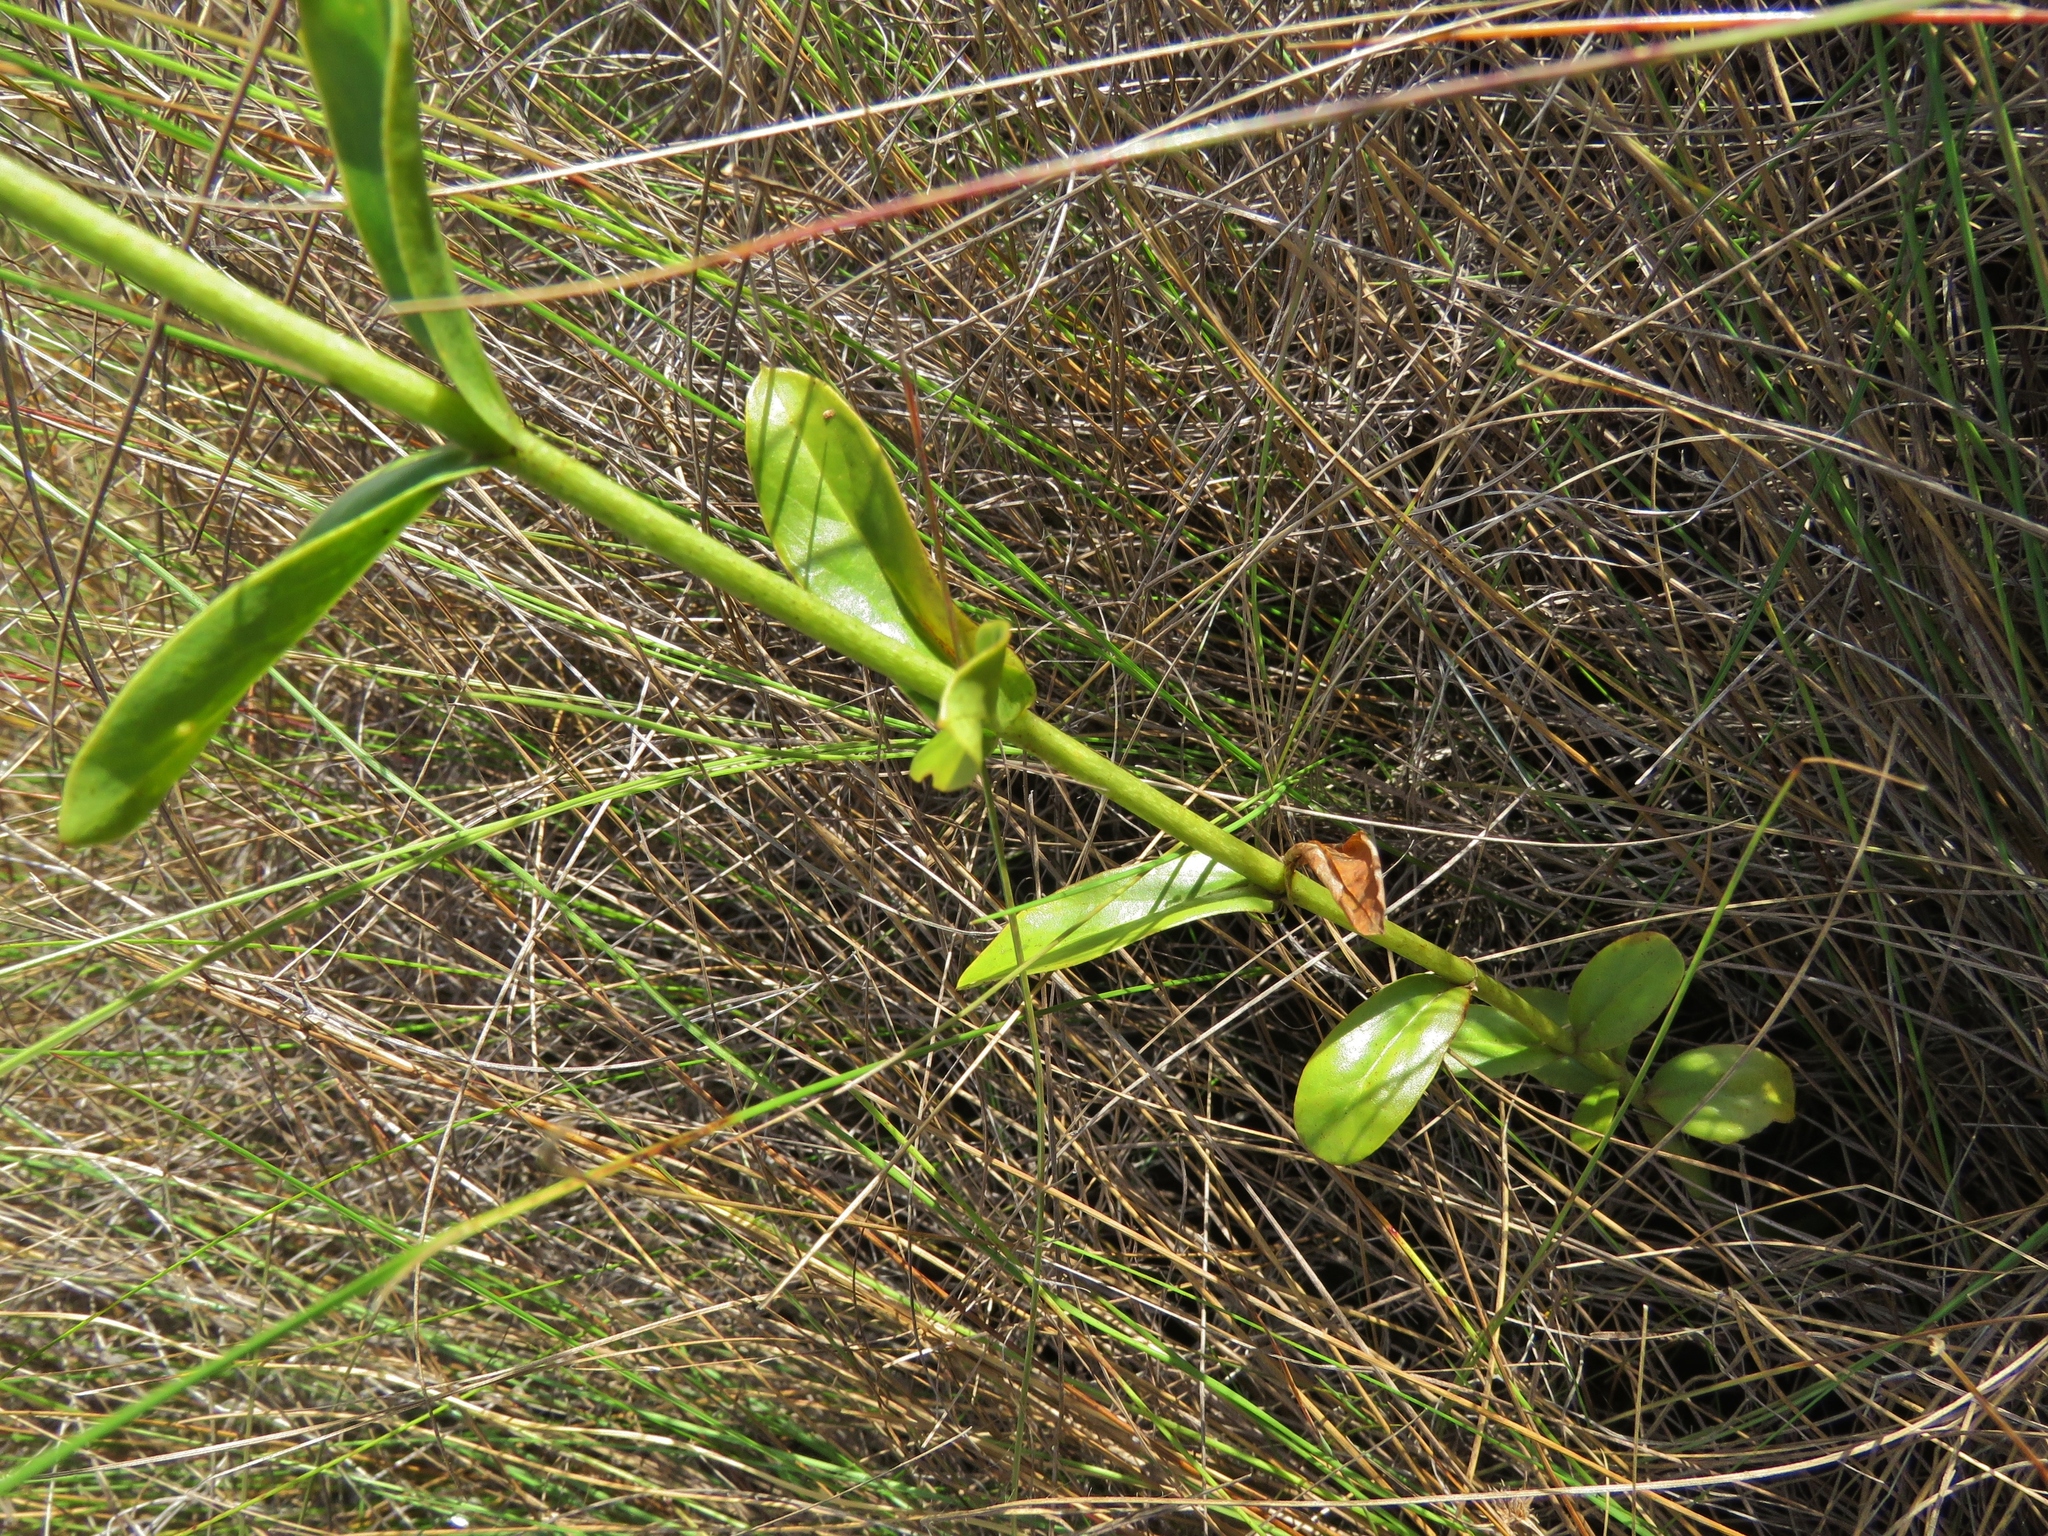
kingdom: Plantae
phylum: Tracheophyta
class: Magnoliopsida
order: Gentianales
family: Gentianaceae
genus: Coutoubea
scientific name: Coutoubea spicata
